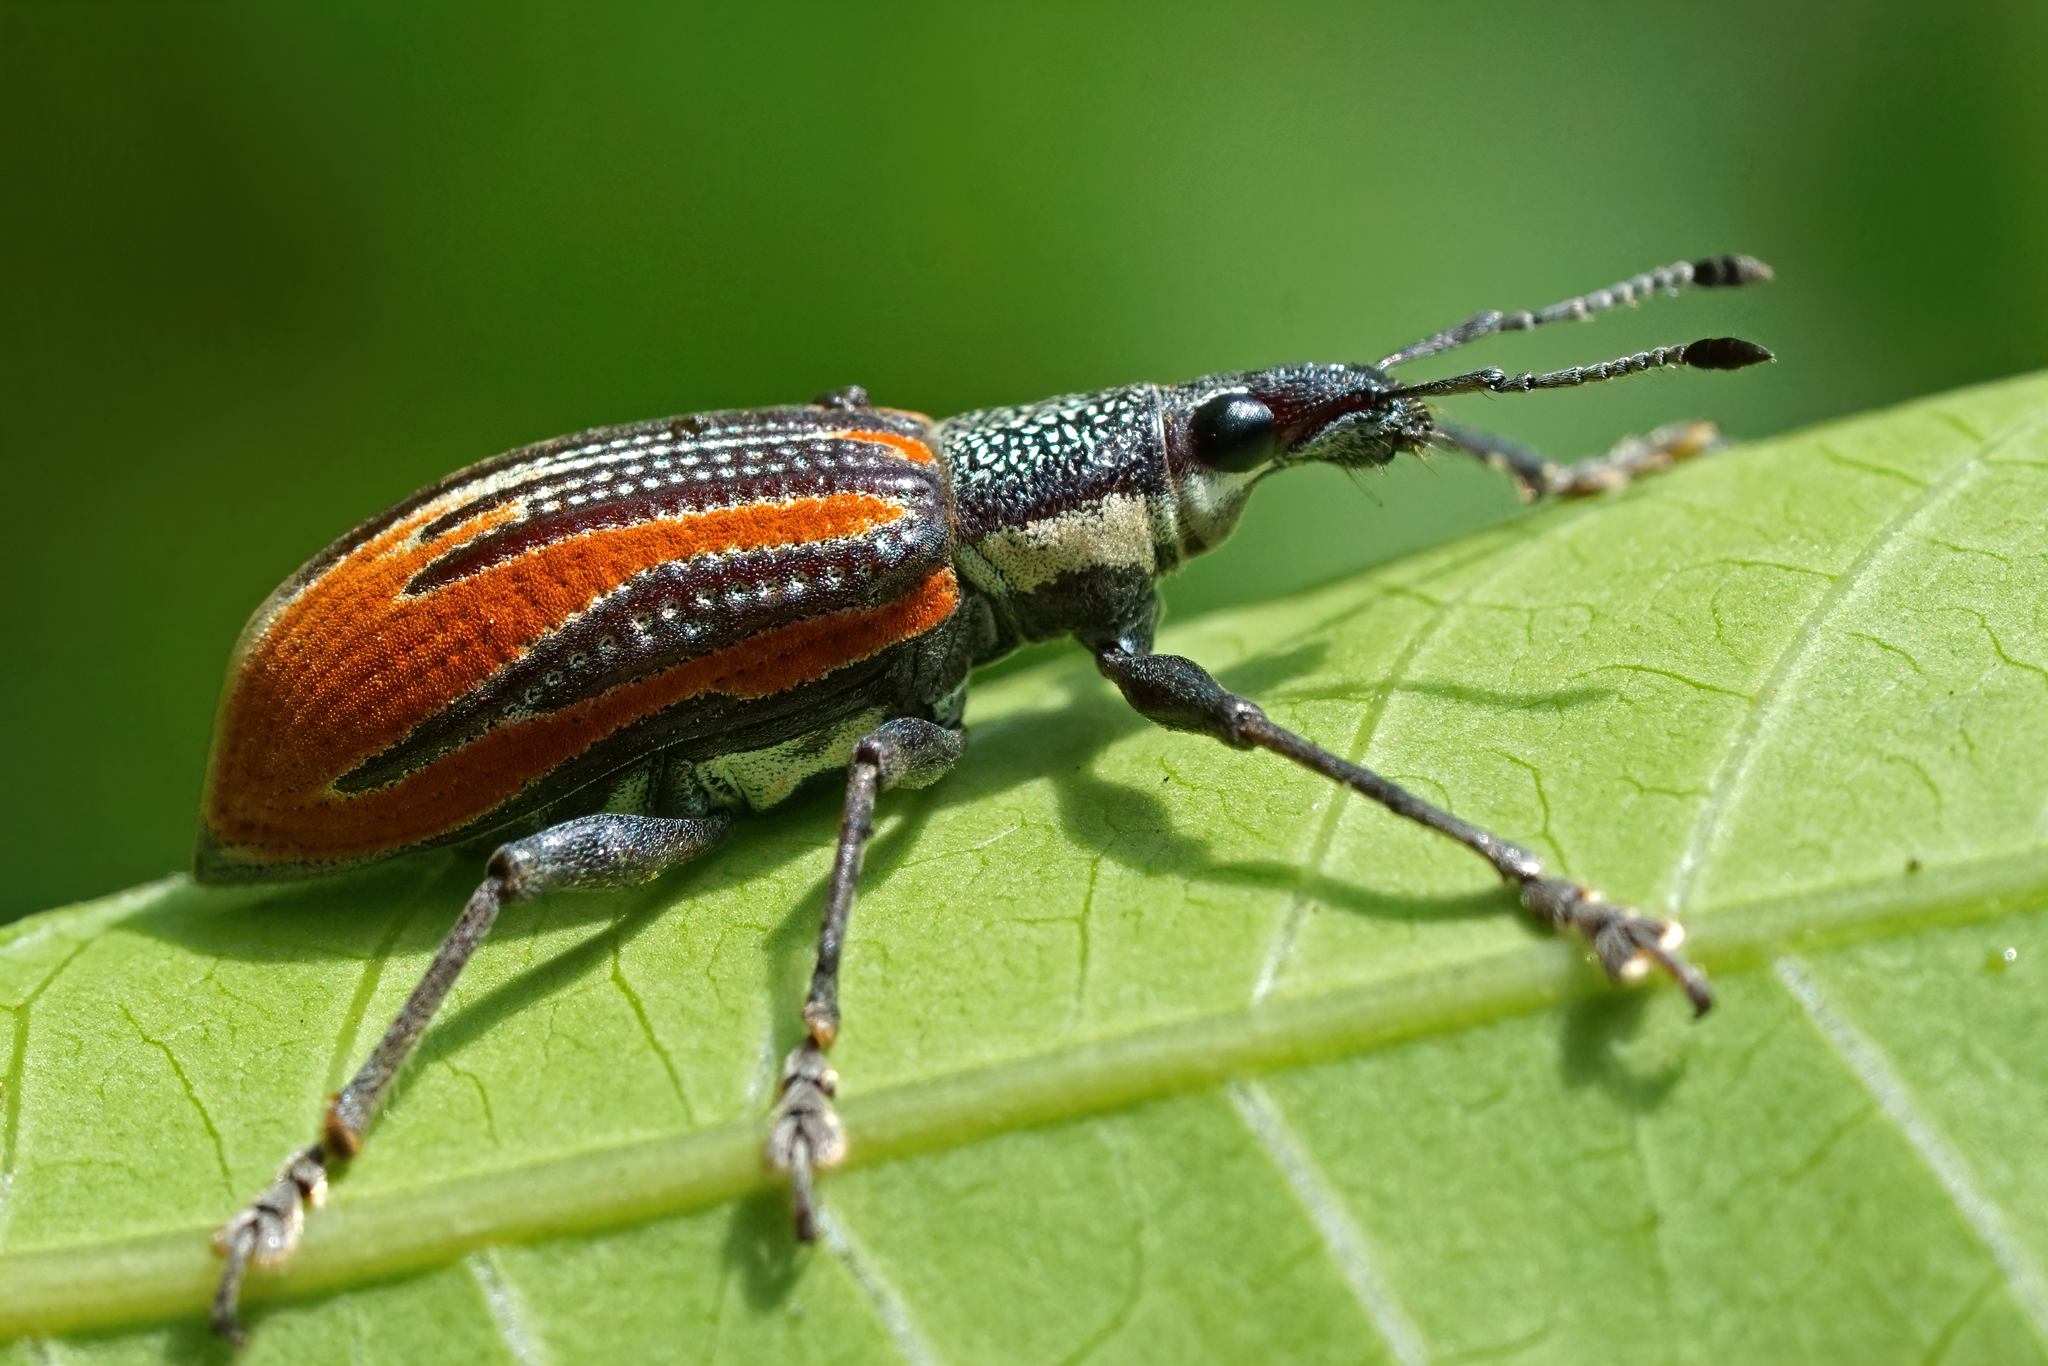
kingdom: Animalia
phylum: Arthropoda
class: Insecta
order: Coleoptera
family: Curculionidae
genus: Diaprepes
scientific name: Diaprepes abbreviatus
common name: Root weevil
